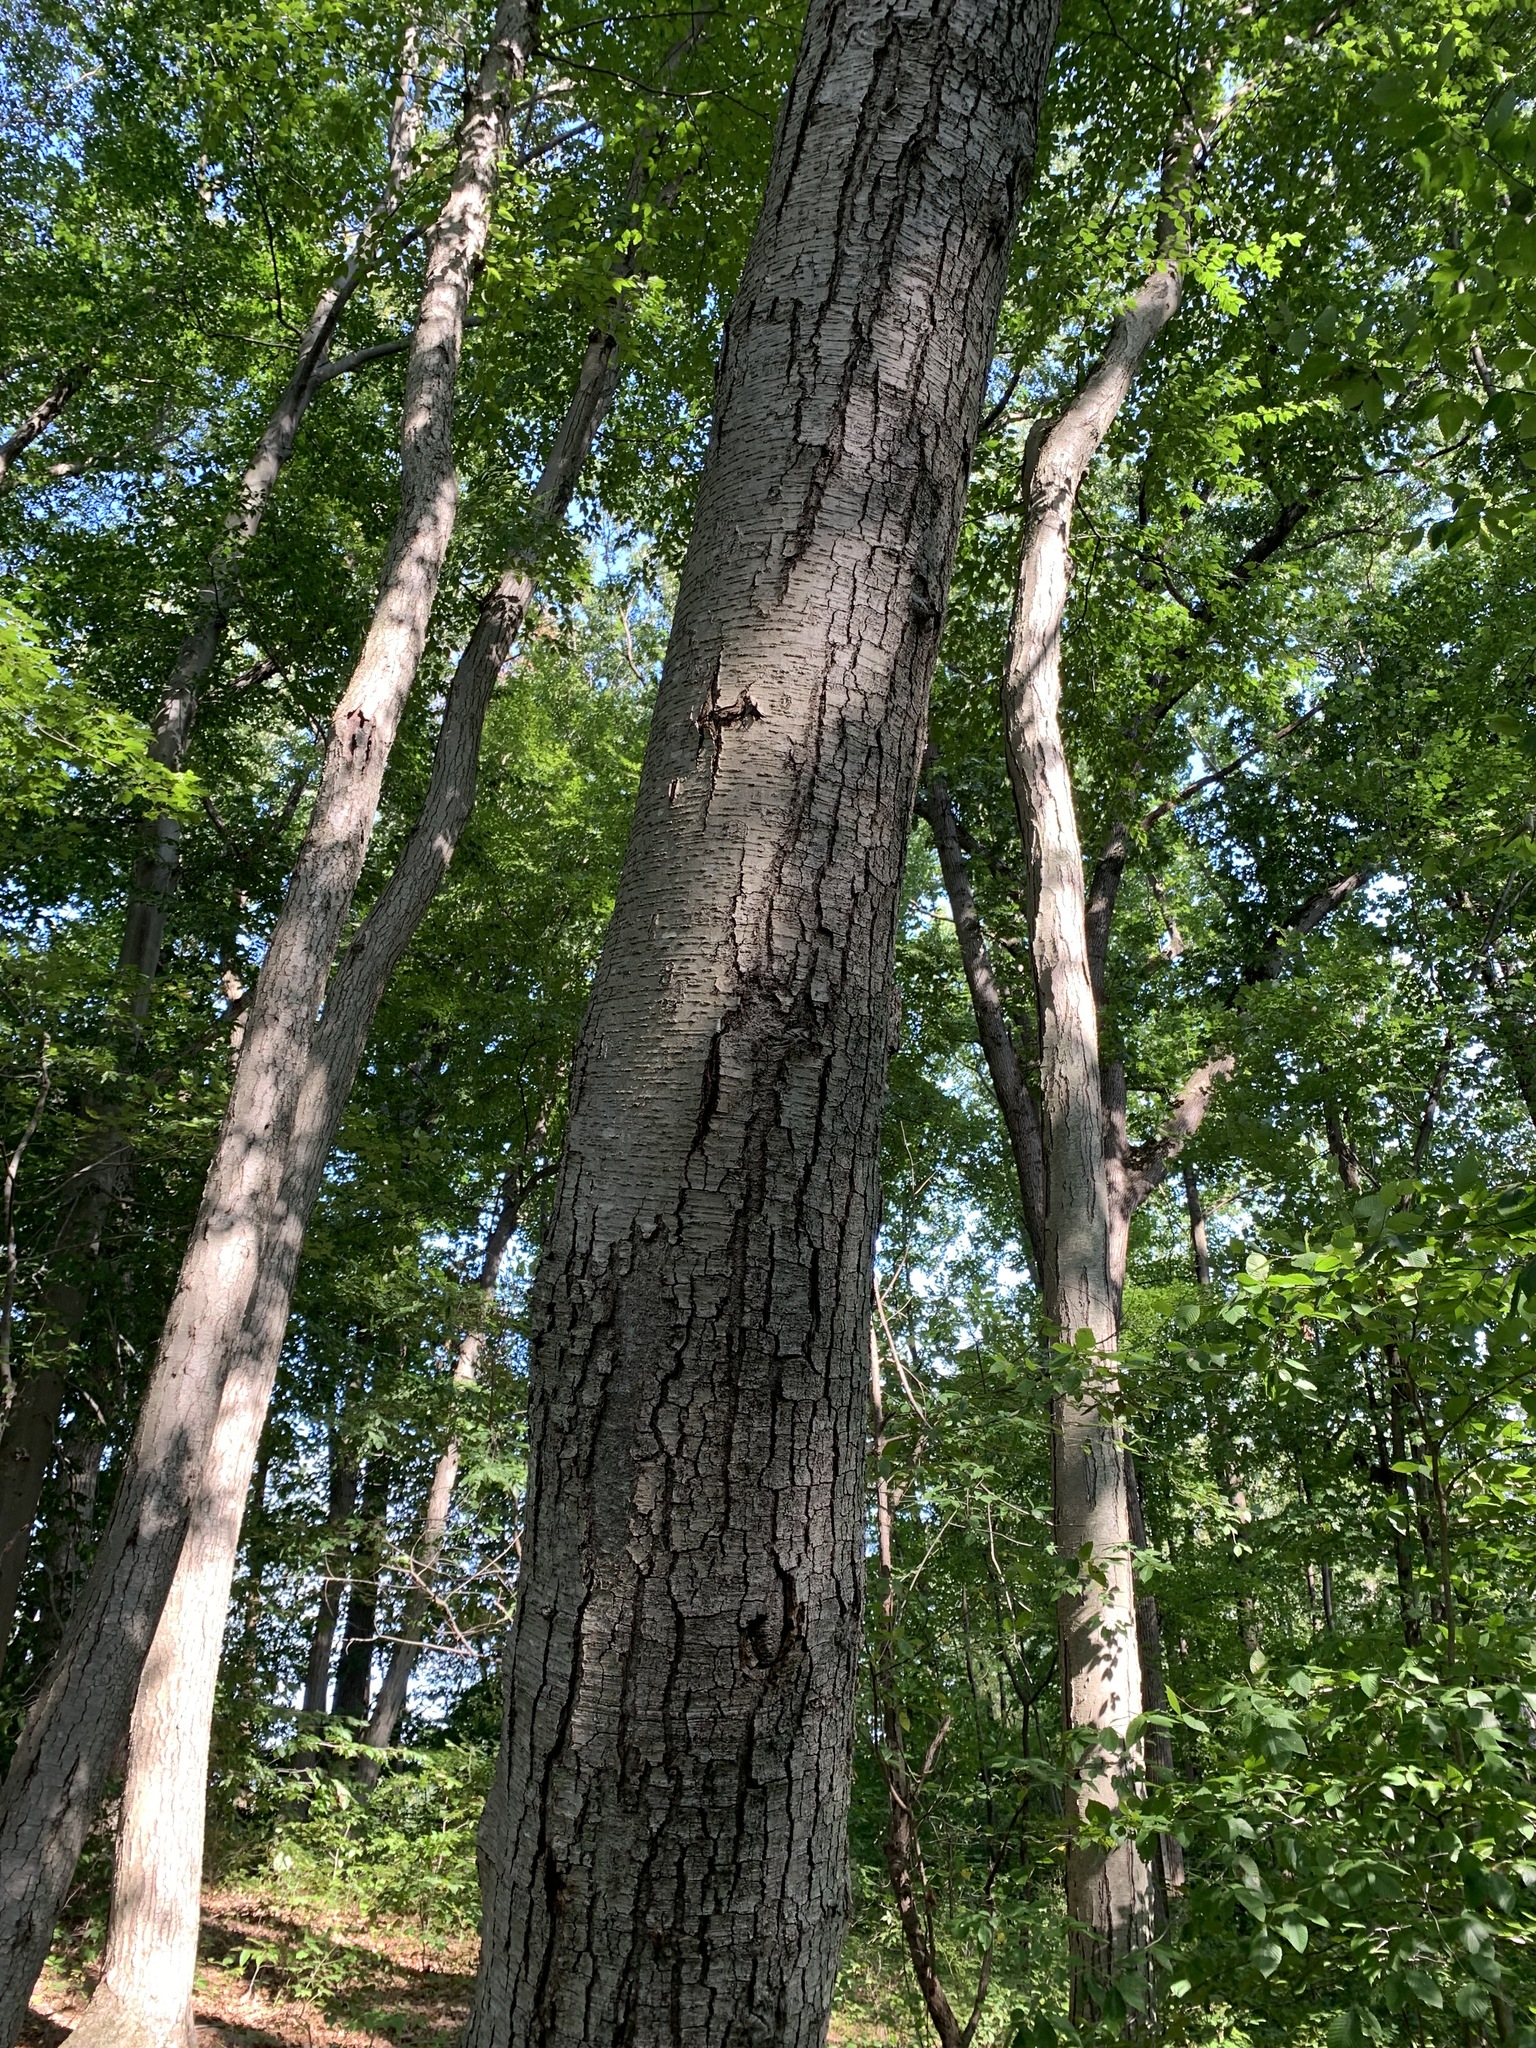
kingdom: Plantae
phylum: Tracheophyta
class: Magnoliopsida
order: Fagales
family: Betulaceae
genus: Betula
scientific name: Betula lenta
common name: Black birch
